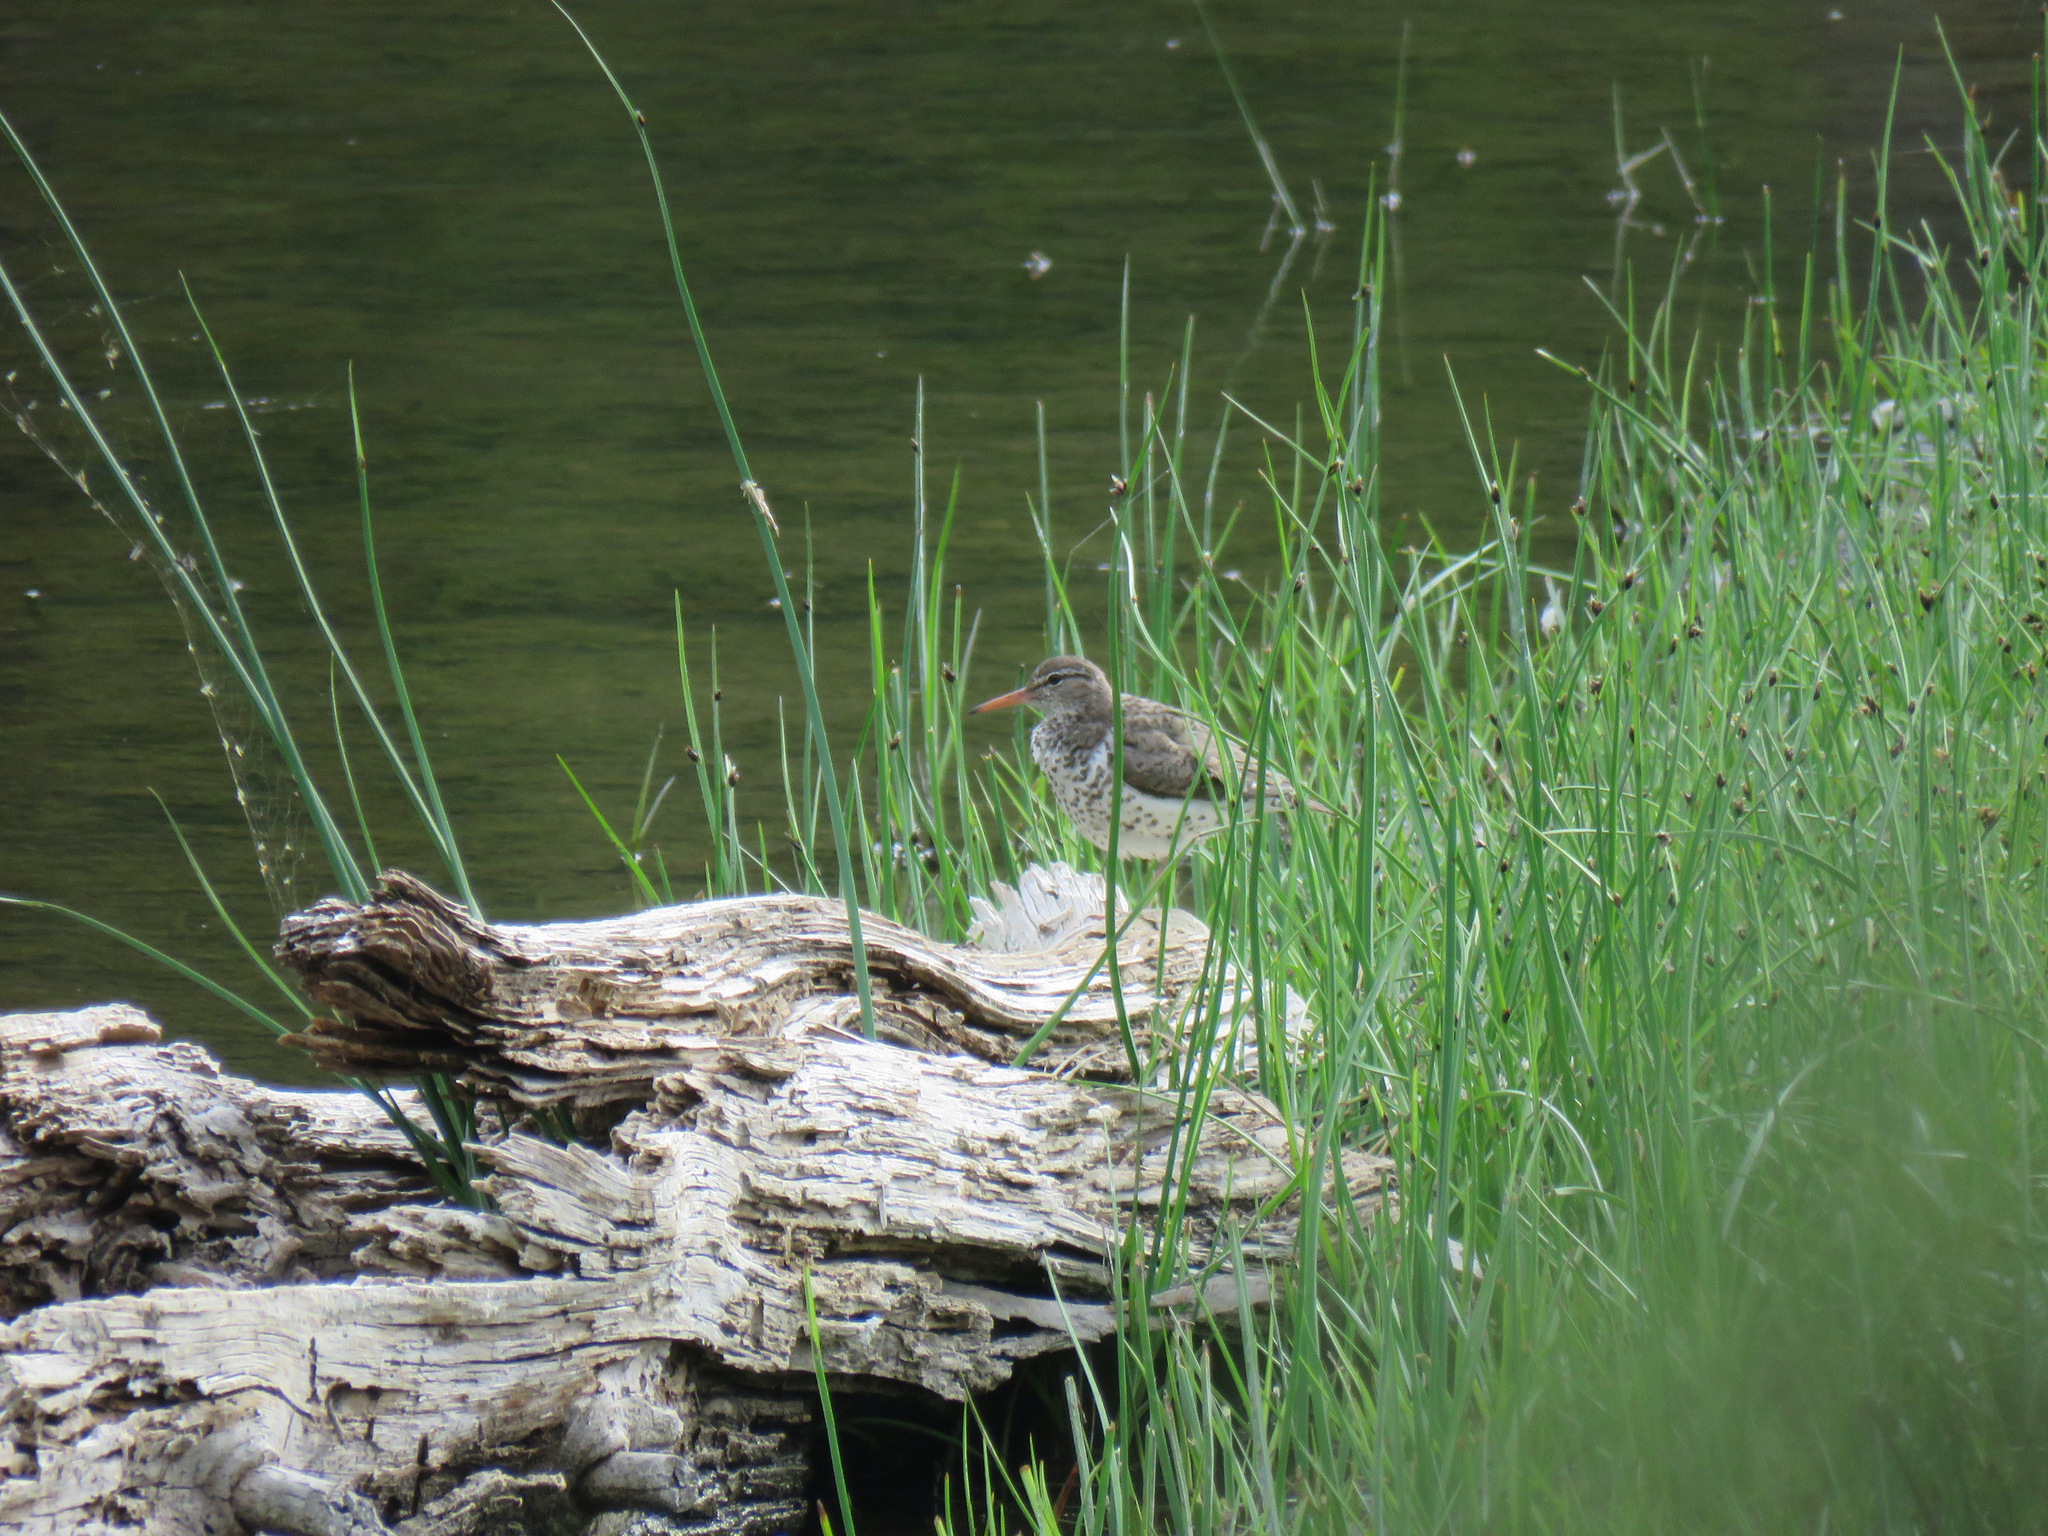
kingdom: Animalia
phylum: Chordata
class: Aves
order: Charadriiformes
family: Scolopacidae
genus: Actitis
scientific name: Actitis macularius
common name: Spotted sandpiper
